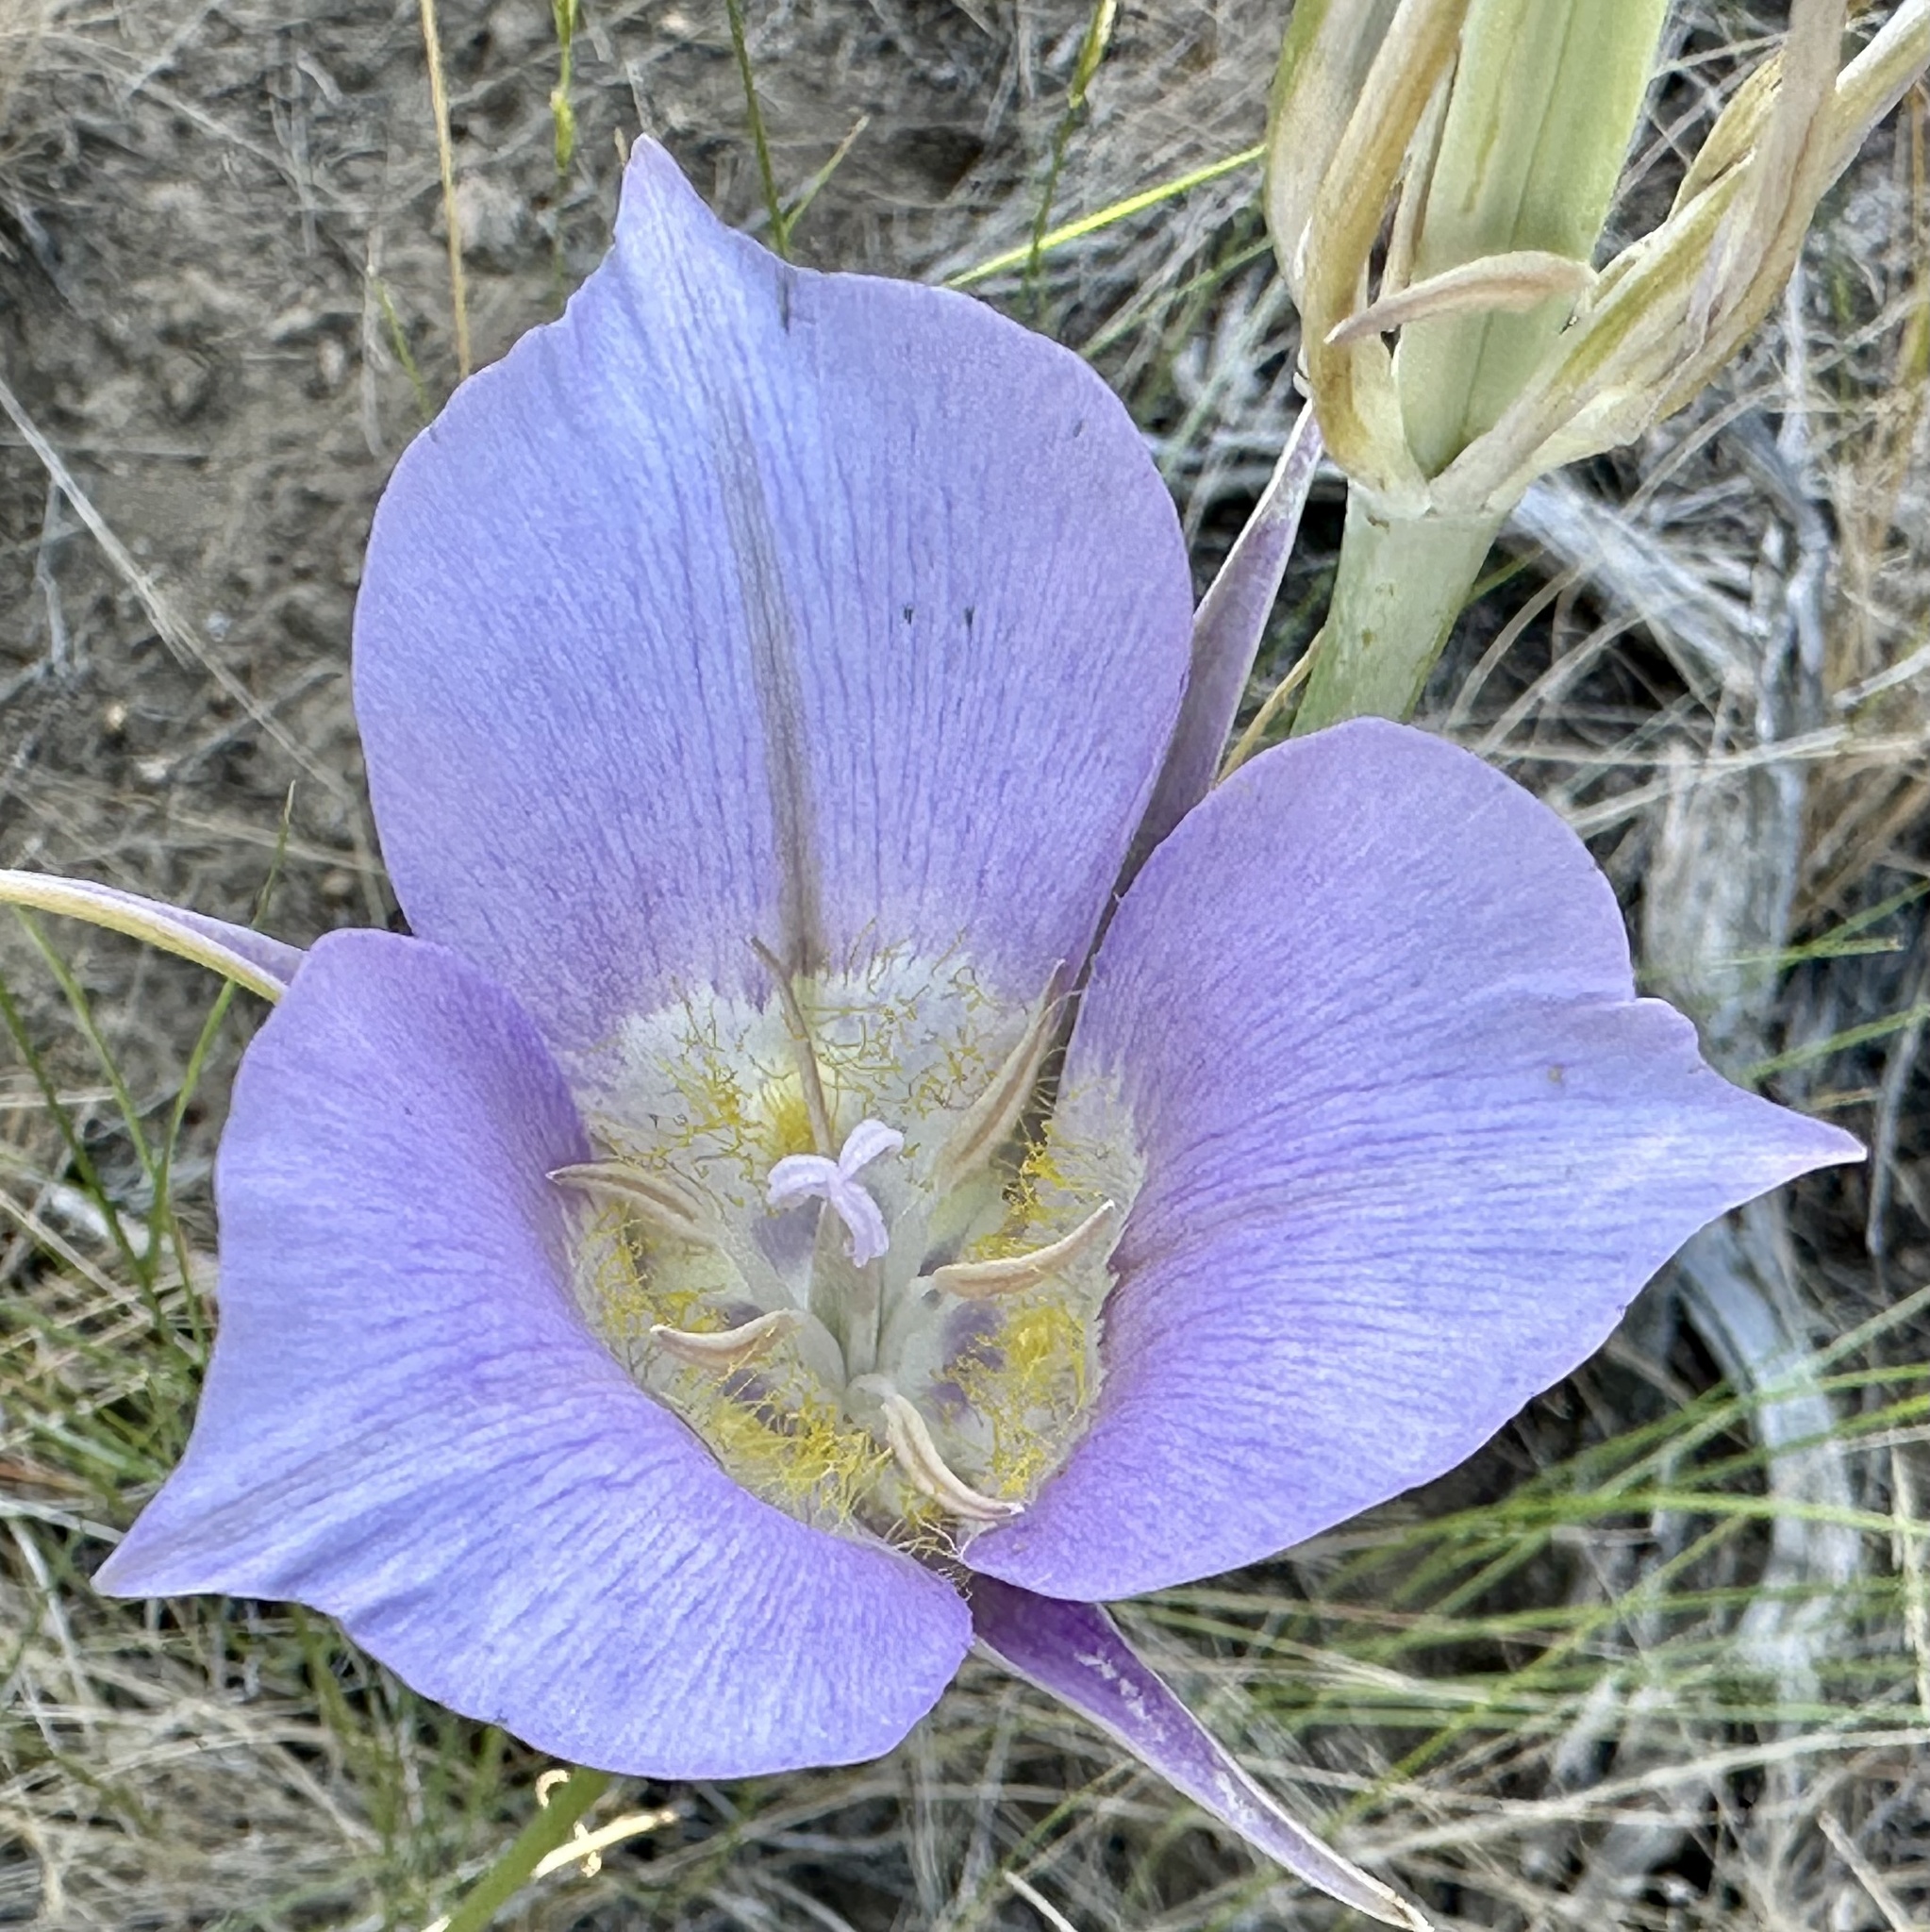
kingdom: Plantae
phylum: Tracheophyta
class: Liliopsida
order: Liliales
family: Liliaceae
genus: Calochortus
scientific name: Calochortus macrocarpus
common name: Green-band mariposa lily
